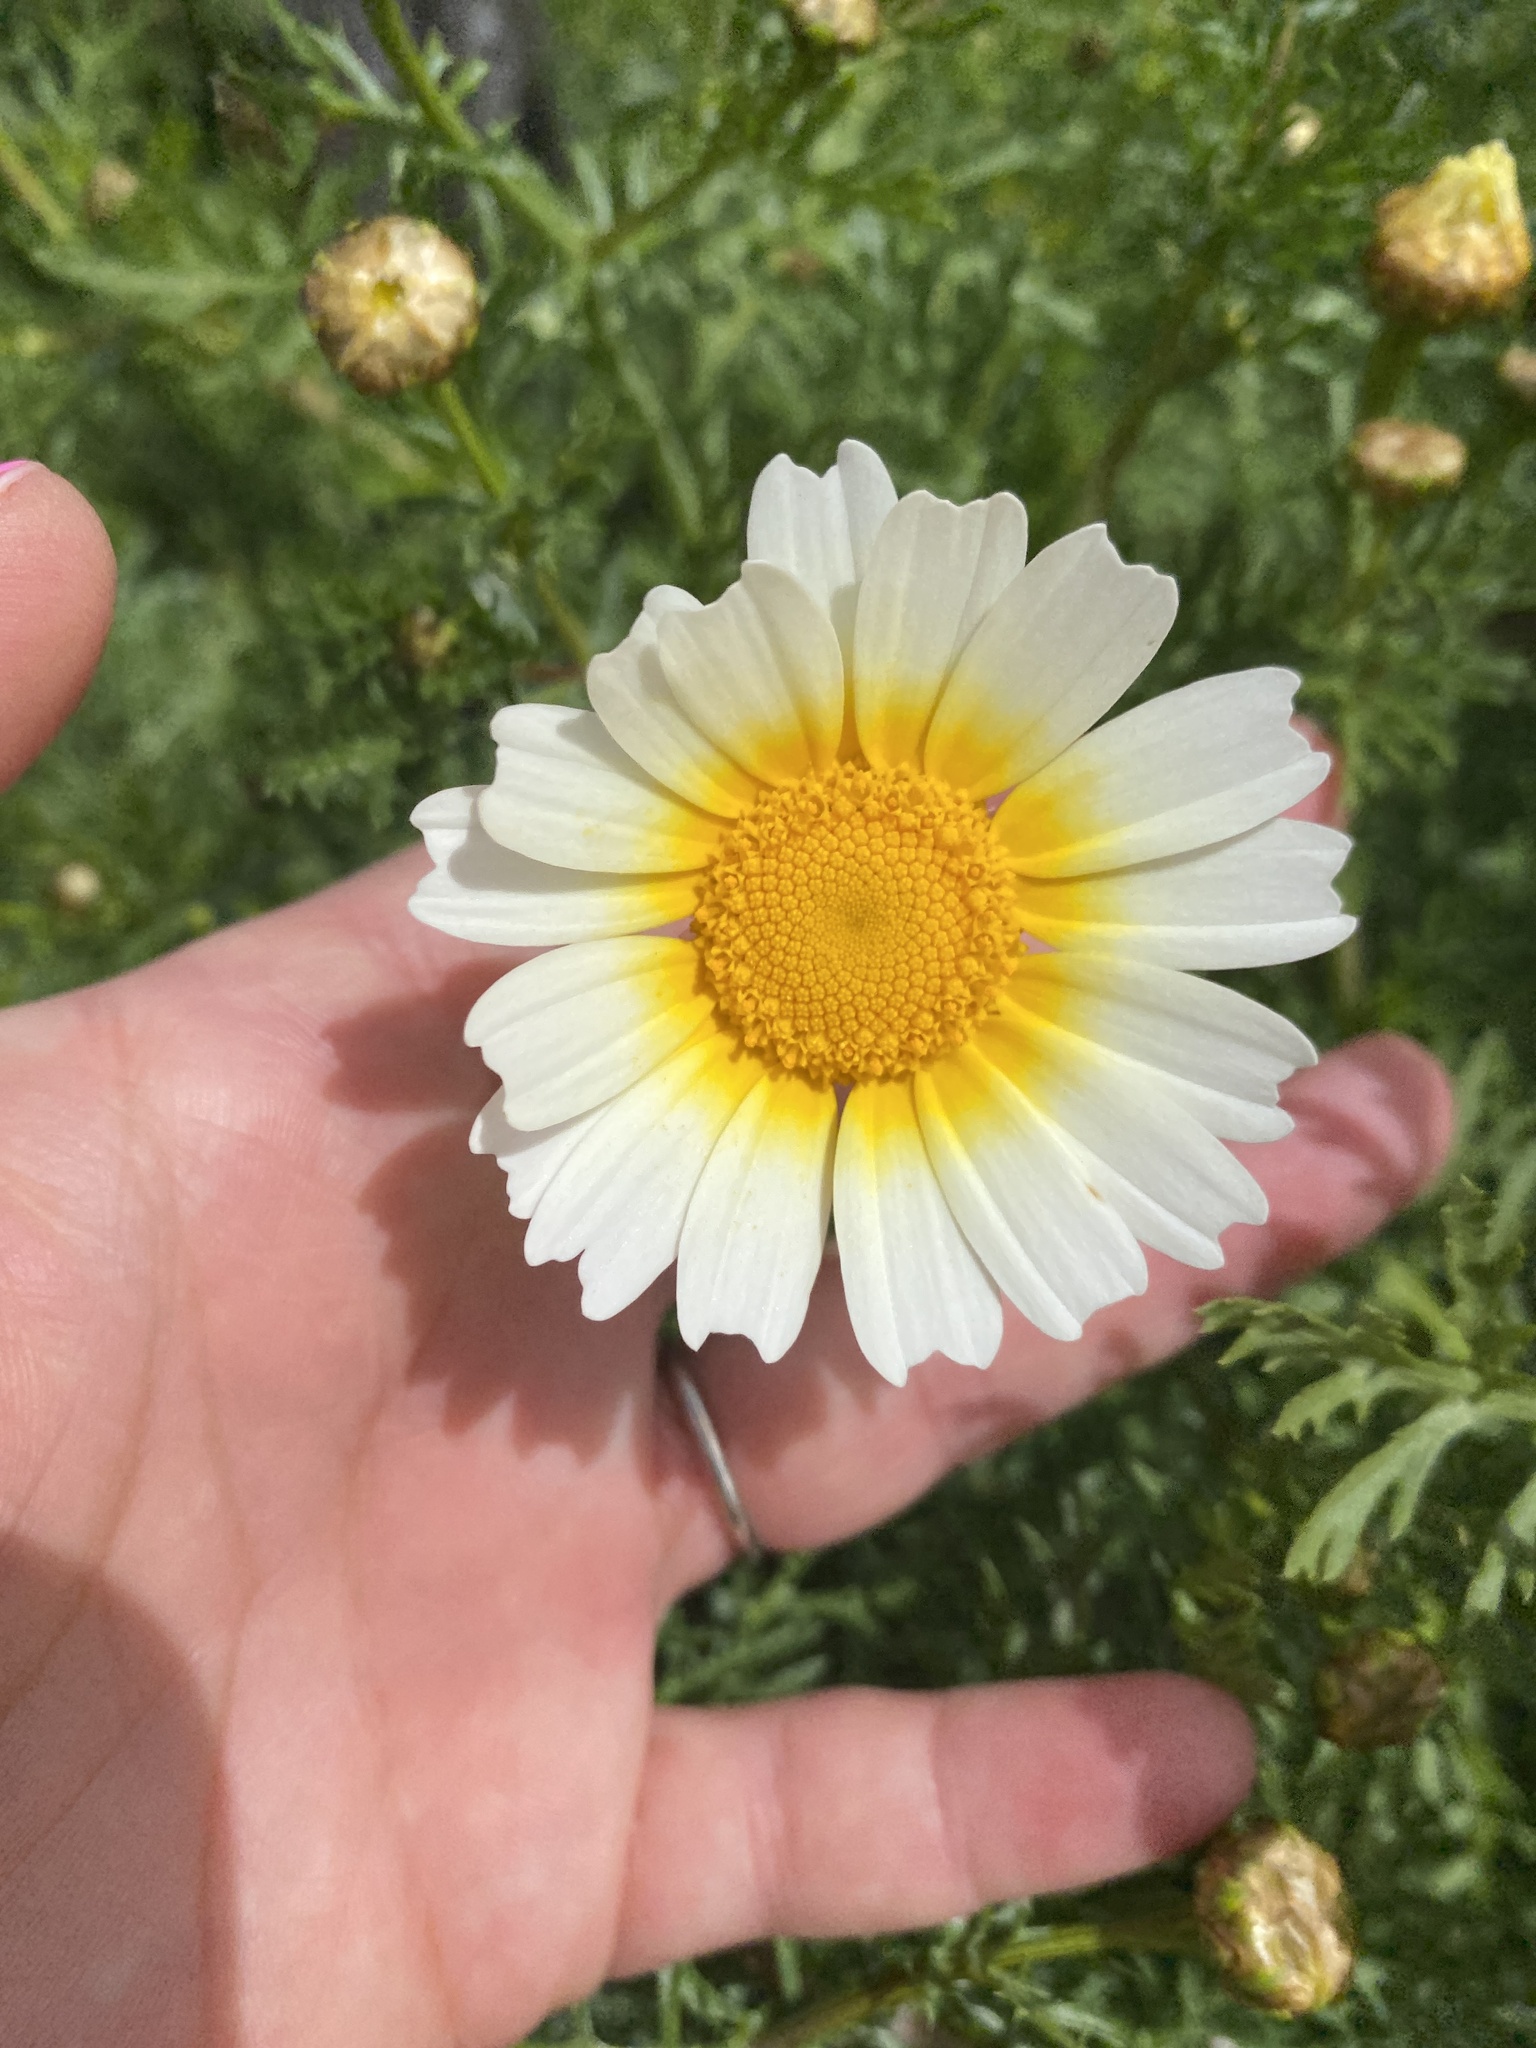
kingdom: Plantae
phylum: Tracheophyta
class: Magnoliopsida
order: Asterales
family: Asteraceae
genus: Glebionis
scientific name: Glebionis coronaria
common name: Crowndaisy
